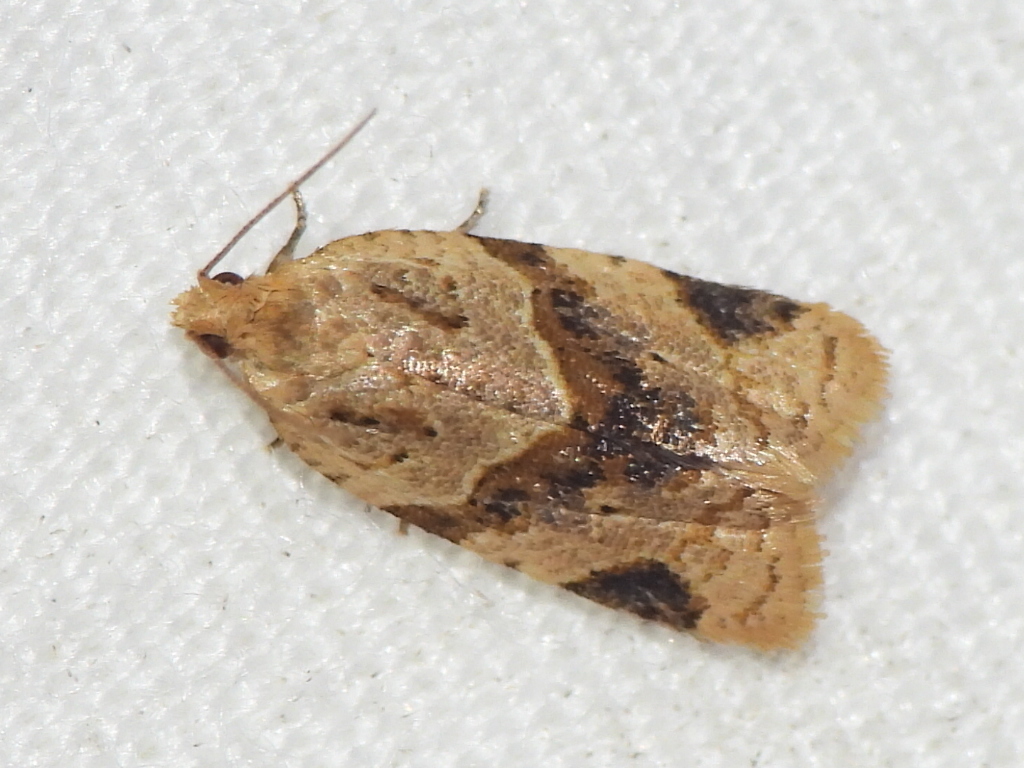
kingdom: Animalia
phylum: Arthropoda
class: Insecta
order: Lepidoptera
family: Tortricidae
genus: Clepsis
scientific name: Clepsis peritana
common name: Garden tortrix
